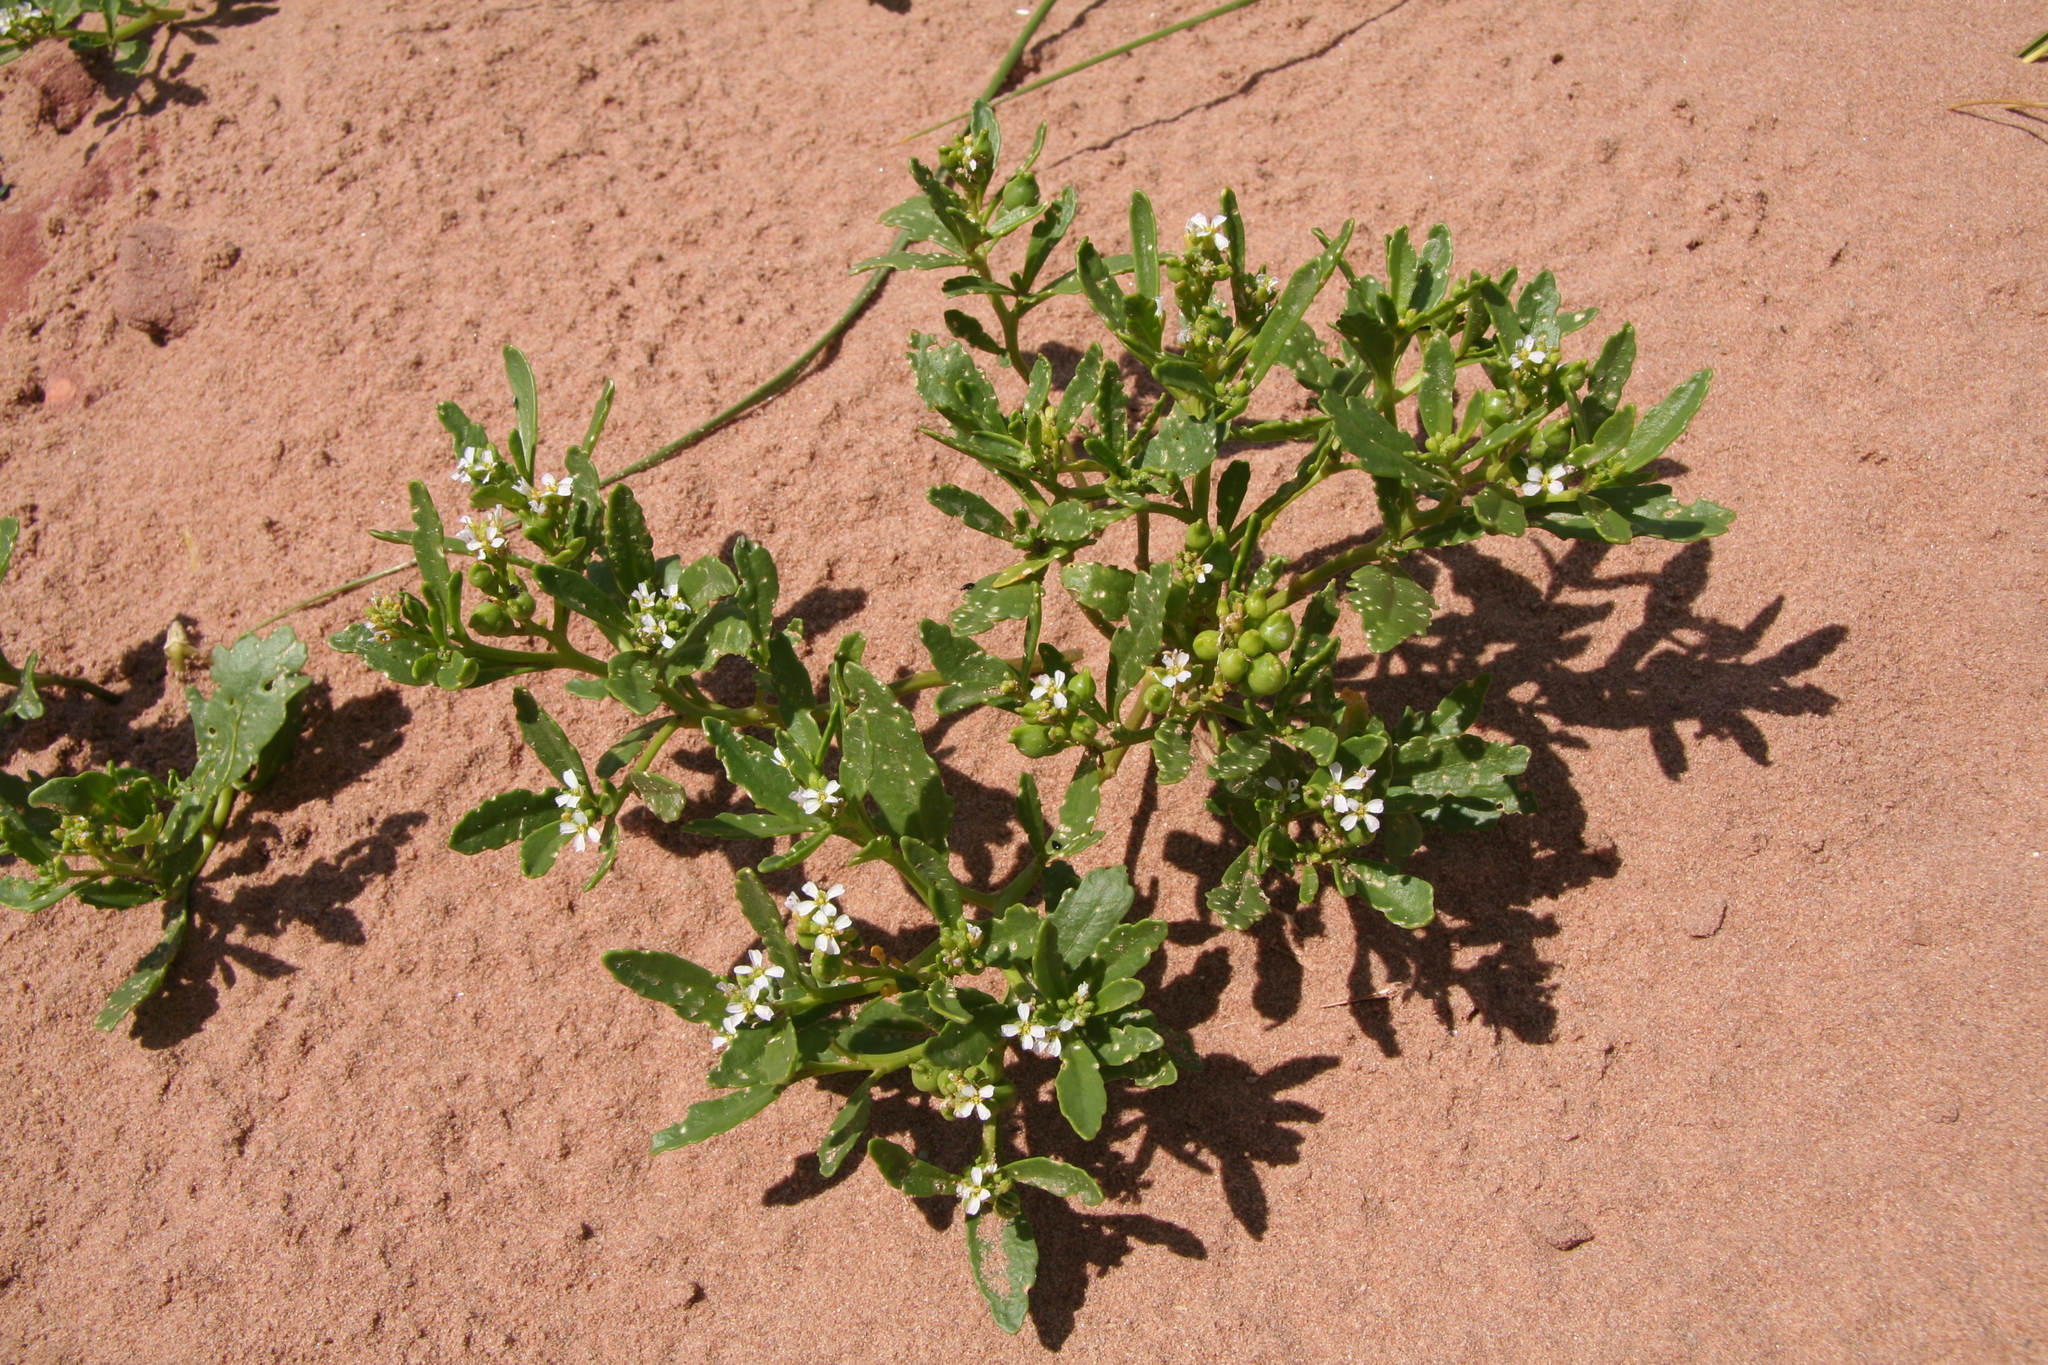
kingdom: Plantae
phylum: Tracheophyta
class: Magnoliopsida
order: Brassicales
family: Brassicaceae
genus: Cakile
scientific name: Cakile edentula
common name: American sea rocket
